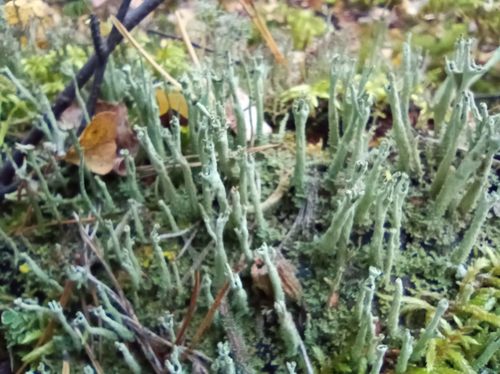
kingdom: Fungi
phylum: Ascomycota
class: Lecanoromycetes
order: Lecanorales
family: Cladoniaceae
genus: Cladonia
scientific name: Cladonia subulata
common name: Antlered powderhorn
